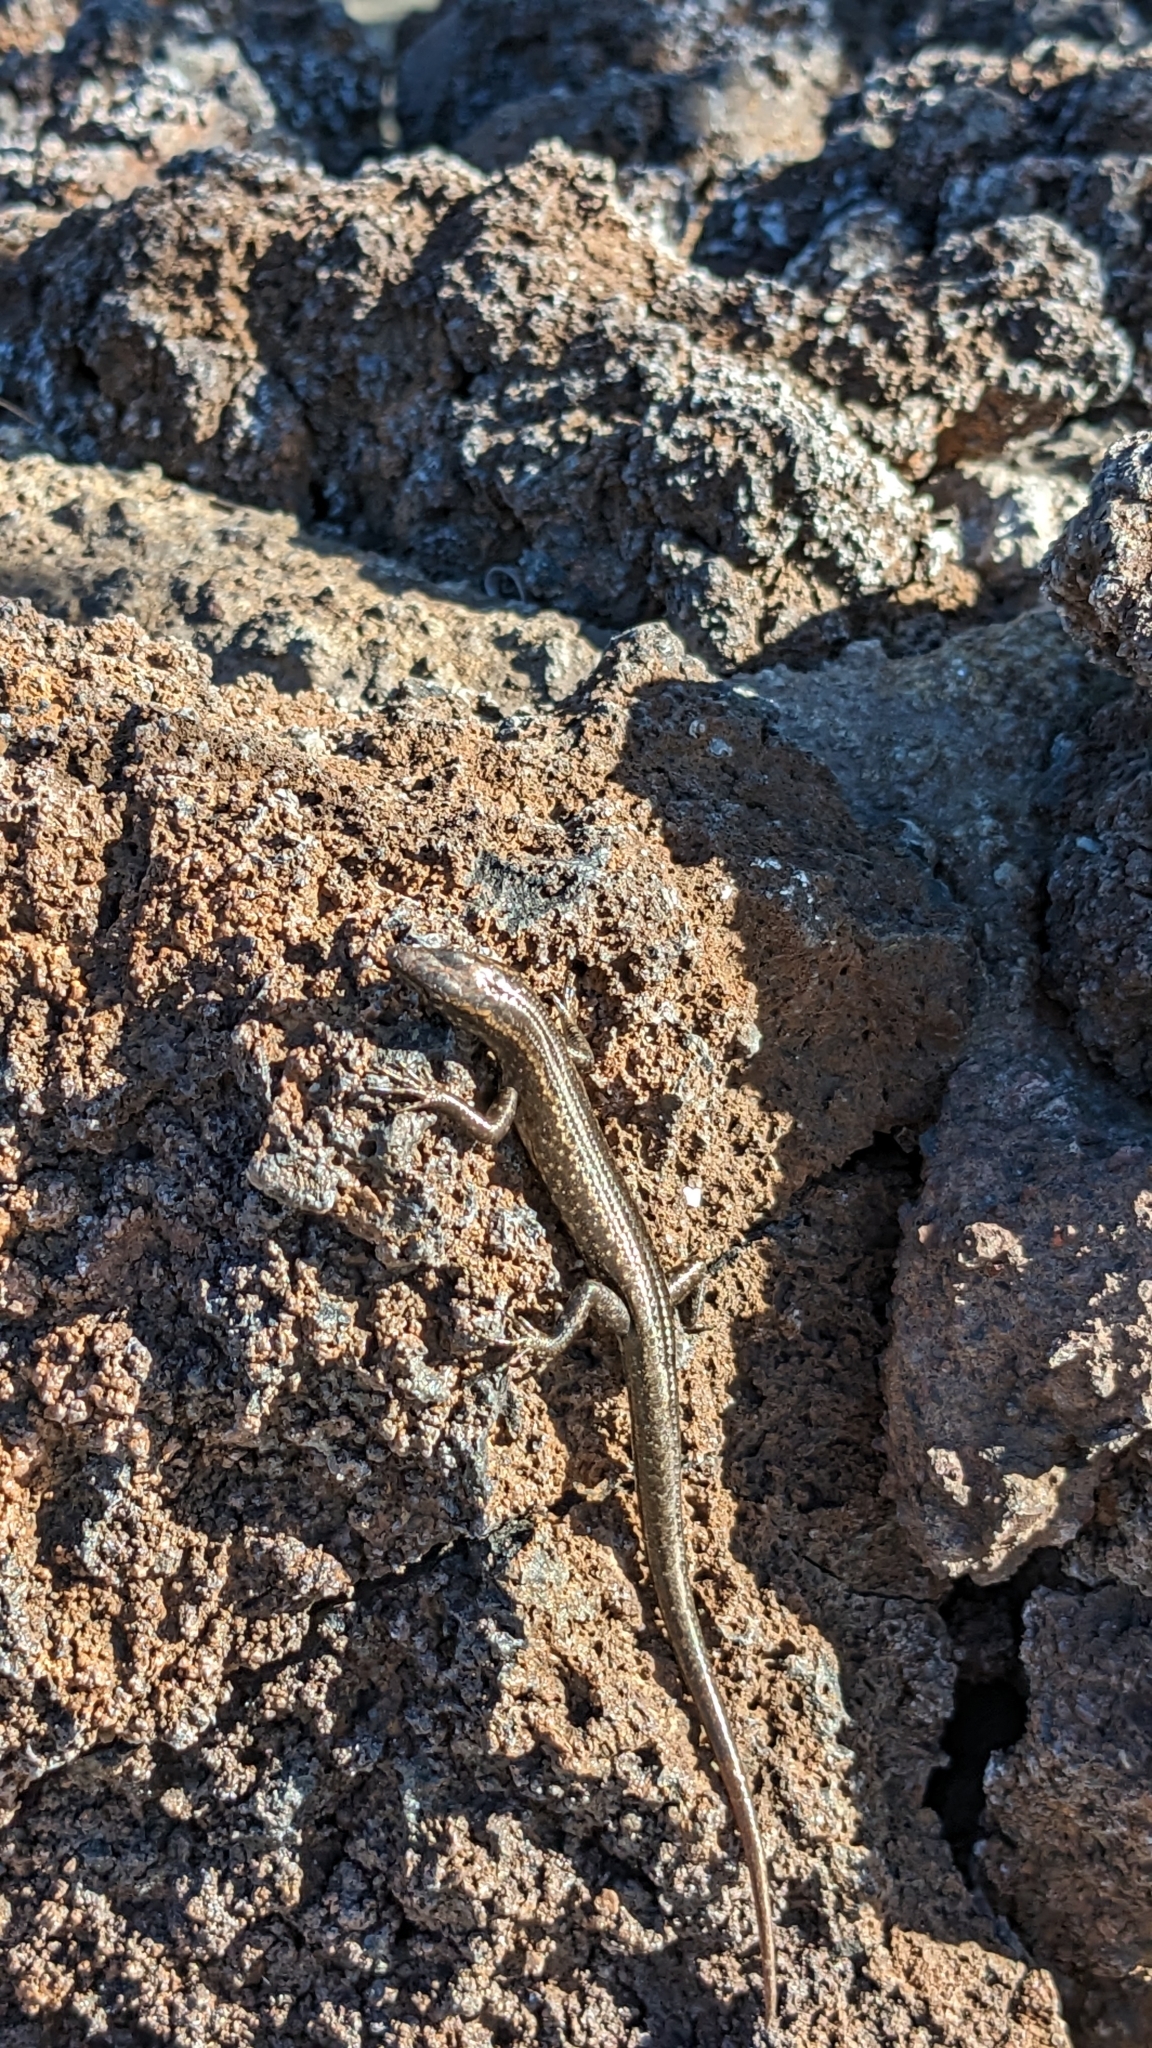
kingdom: Animalia
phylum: Chordata
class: Squamata
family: Scincidae
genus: Cryptoblepharus
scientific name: Cryptoblepharus poecilopleurus
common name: Mottled snake-eyed skink
